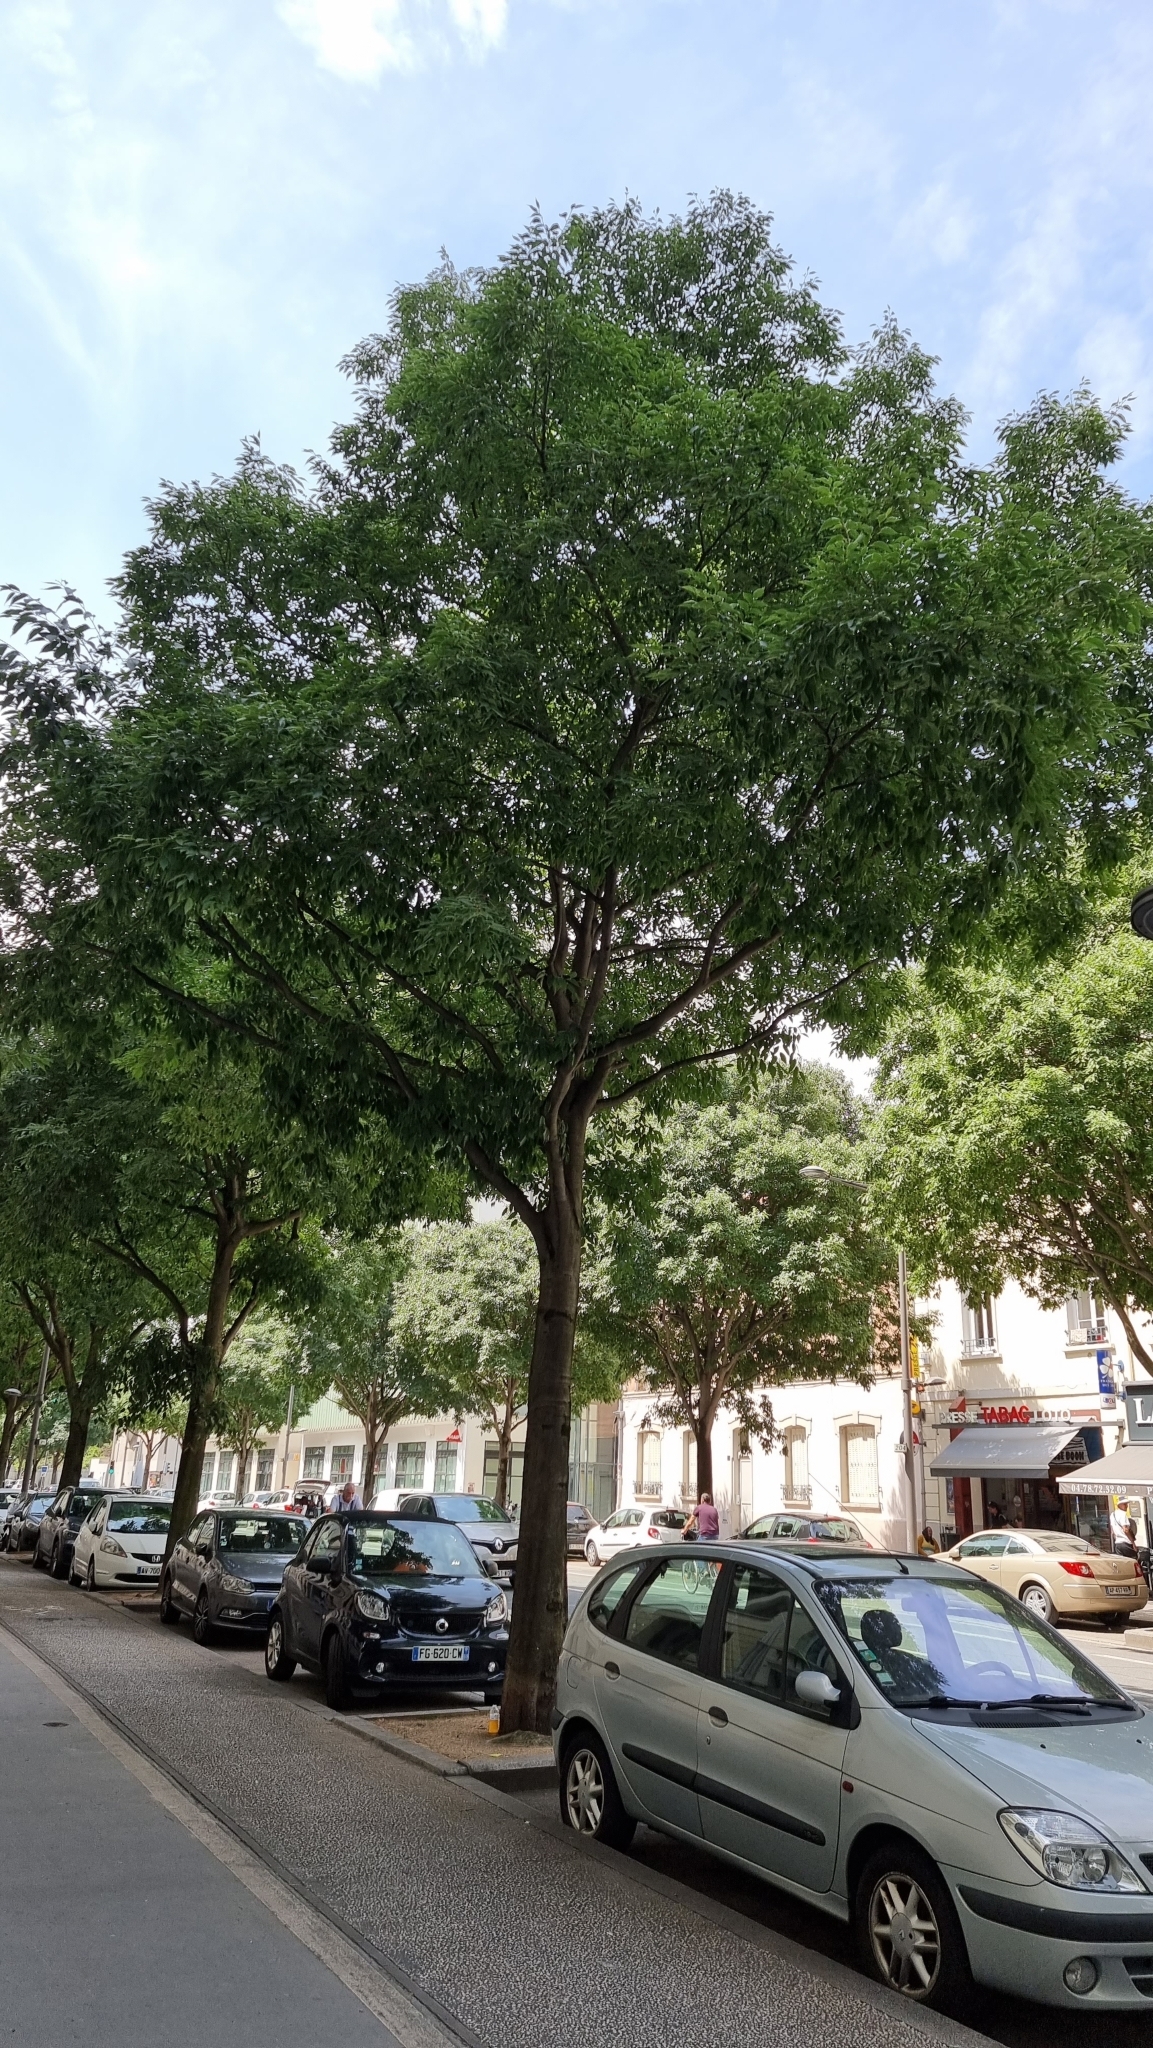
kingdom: Plantae
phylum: Tracheophyta
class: Magnoliopsida
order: Rosales
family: Cannabaceae
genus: Celtis
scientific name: Celtis australis
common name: European hackberry
